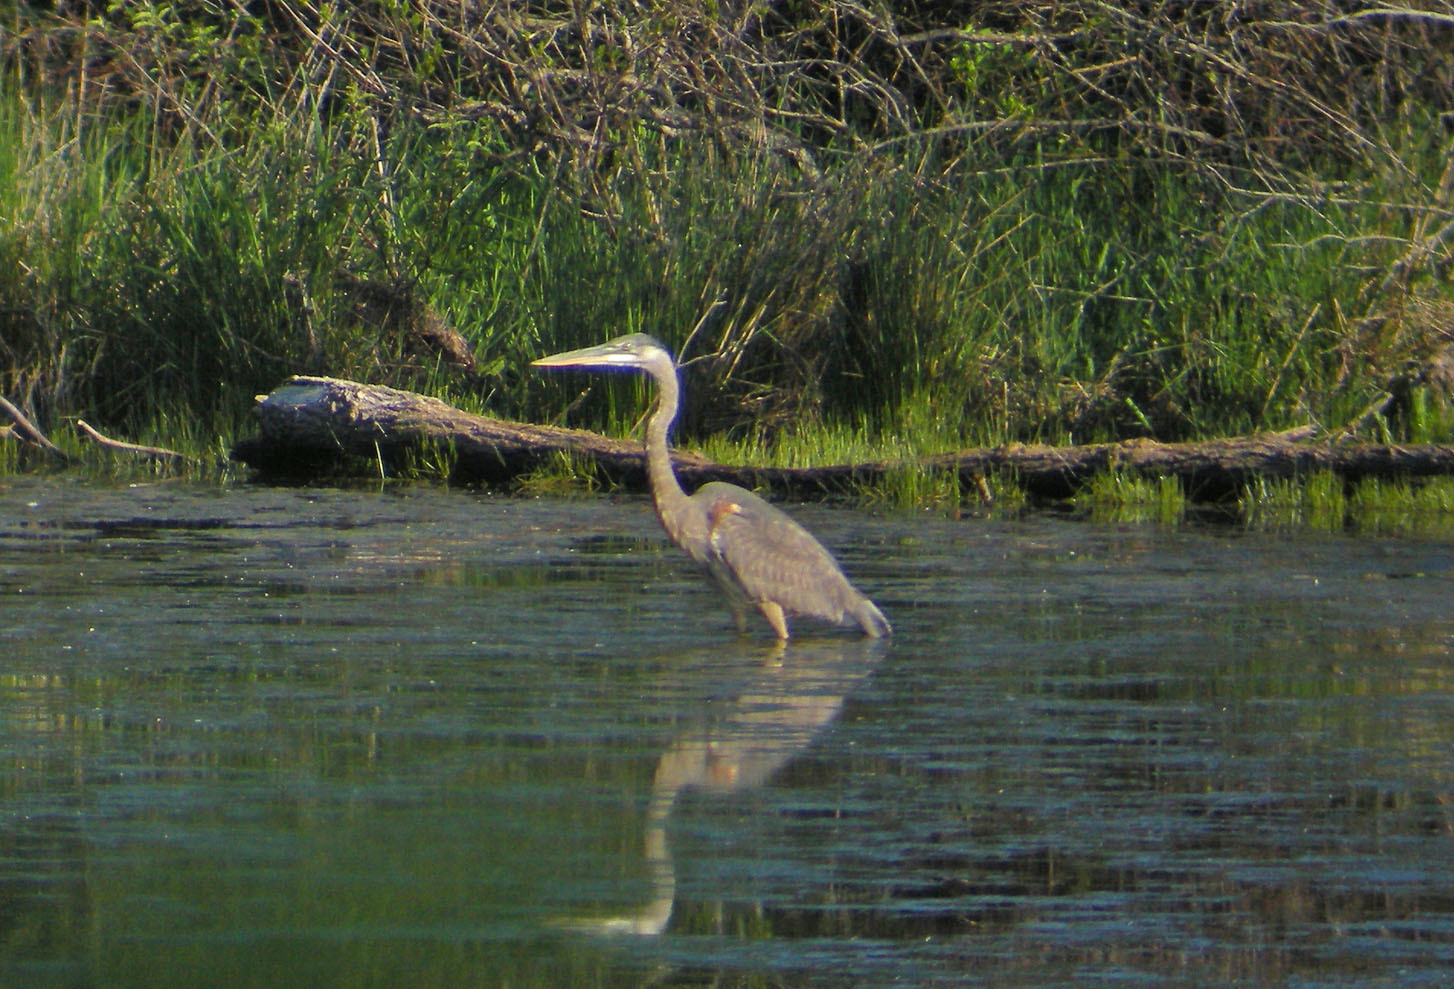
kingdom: Animalia
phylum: Chordata
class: Aves
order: Pelecaniformes
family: Ardeidae
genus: Ardea
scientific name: Ardea herodias
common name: Great blue heron
